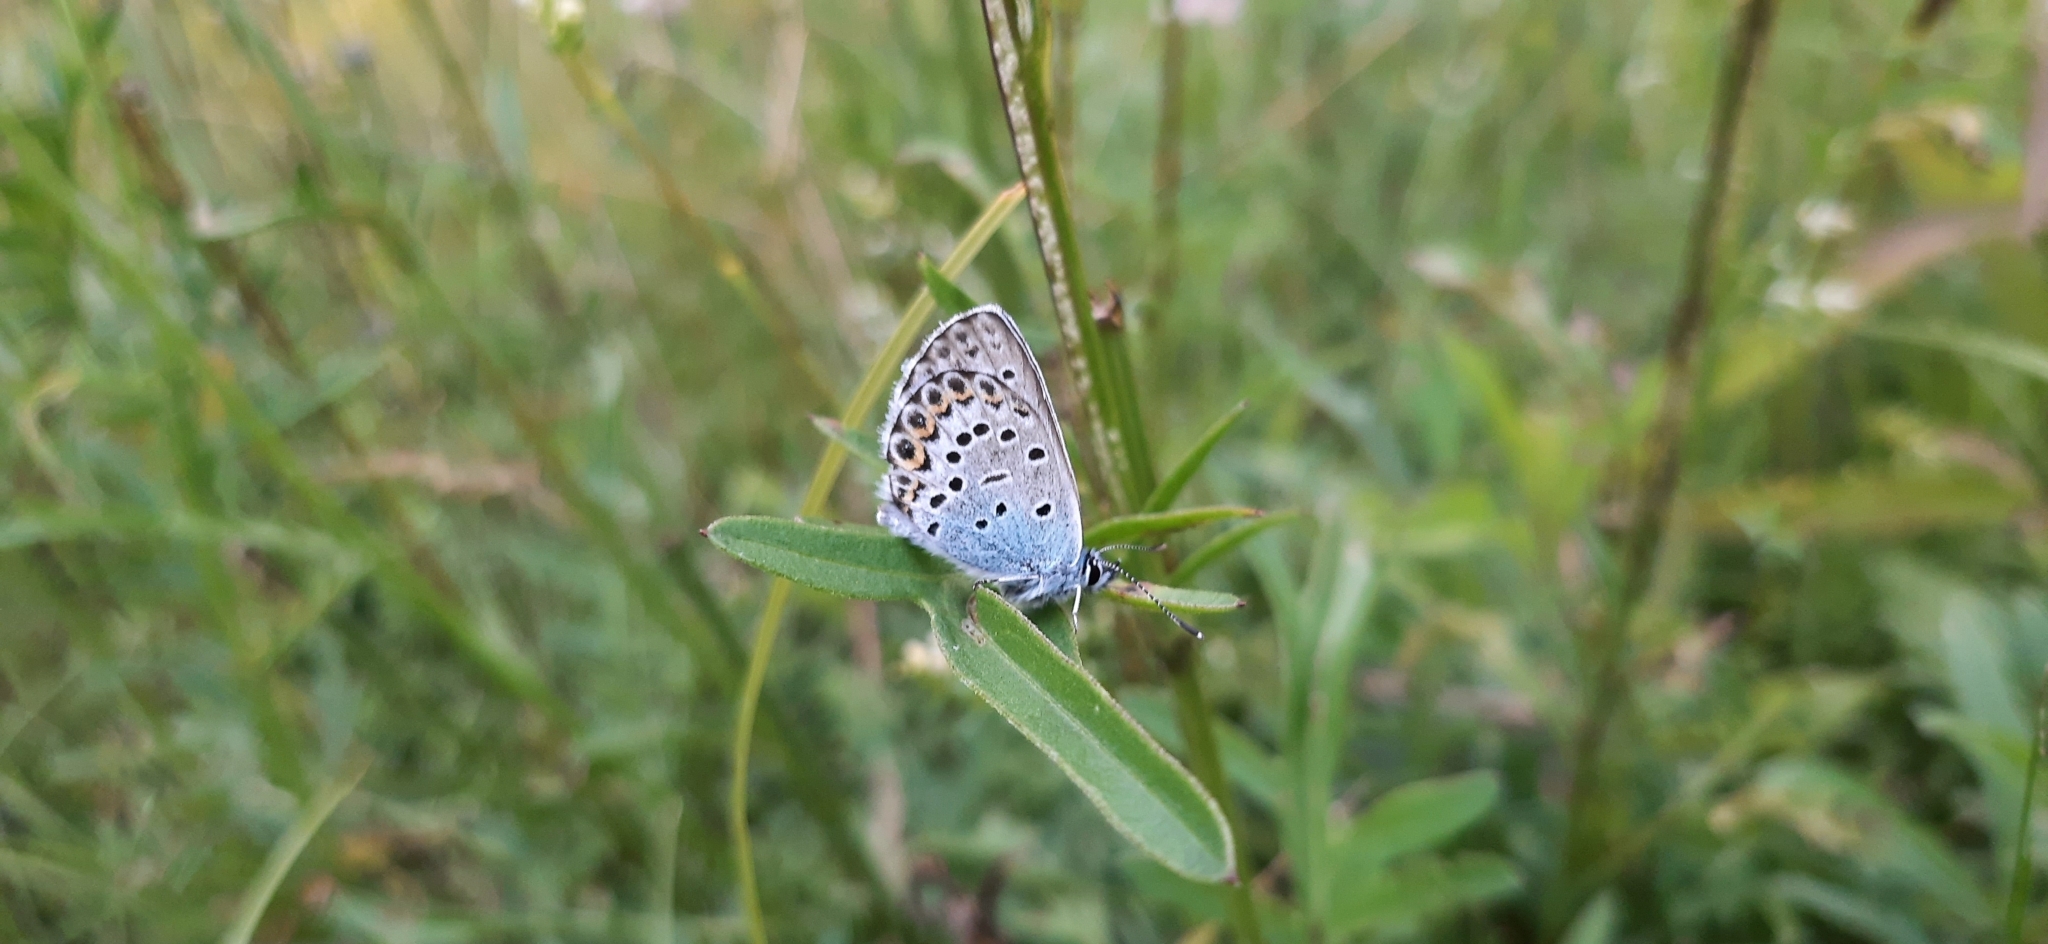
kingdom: Animalia
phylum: Arthropoda
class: Insecta
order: Lepidoptera
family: Lycaenidae
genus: Lycaeides
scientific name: Lycaeides idas
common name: Northern blue
